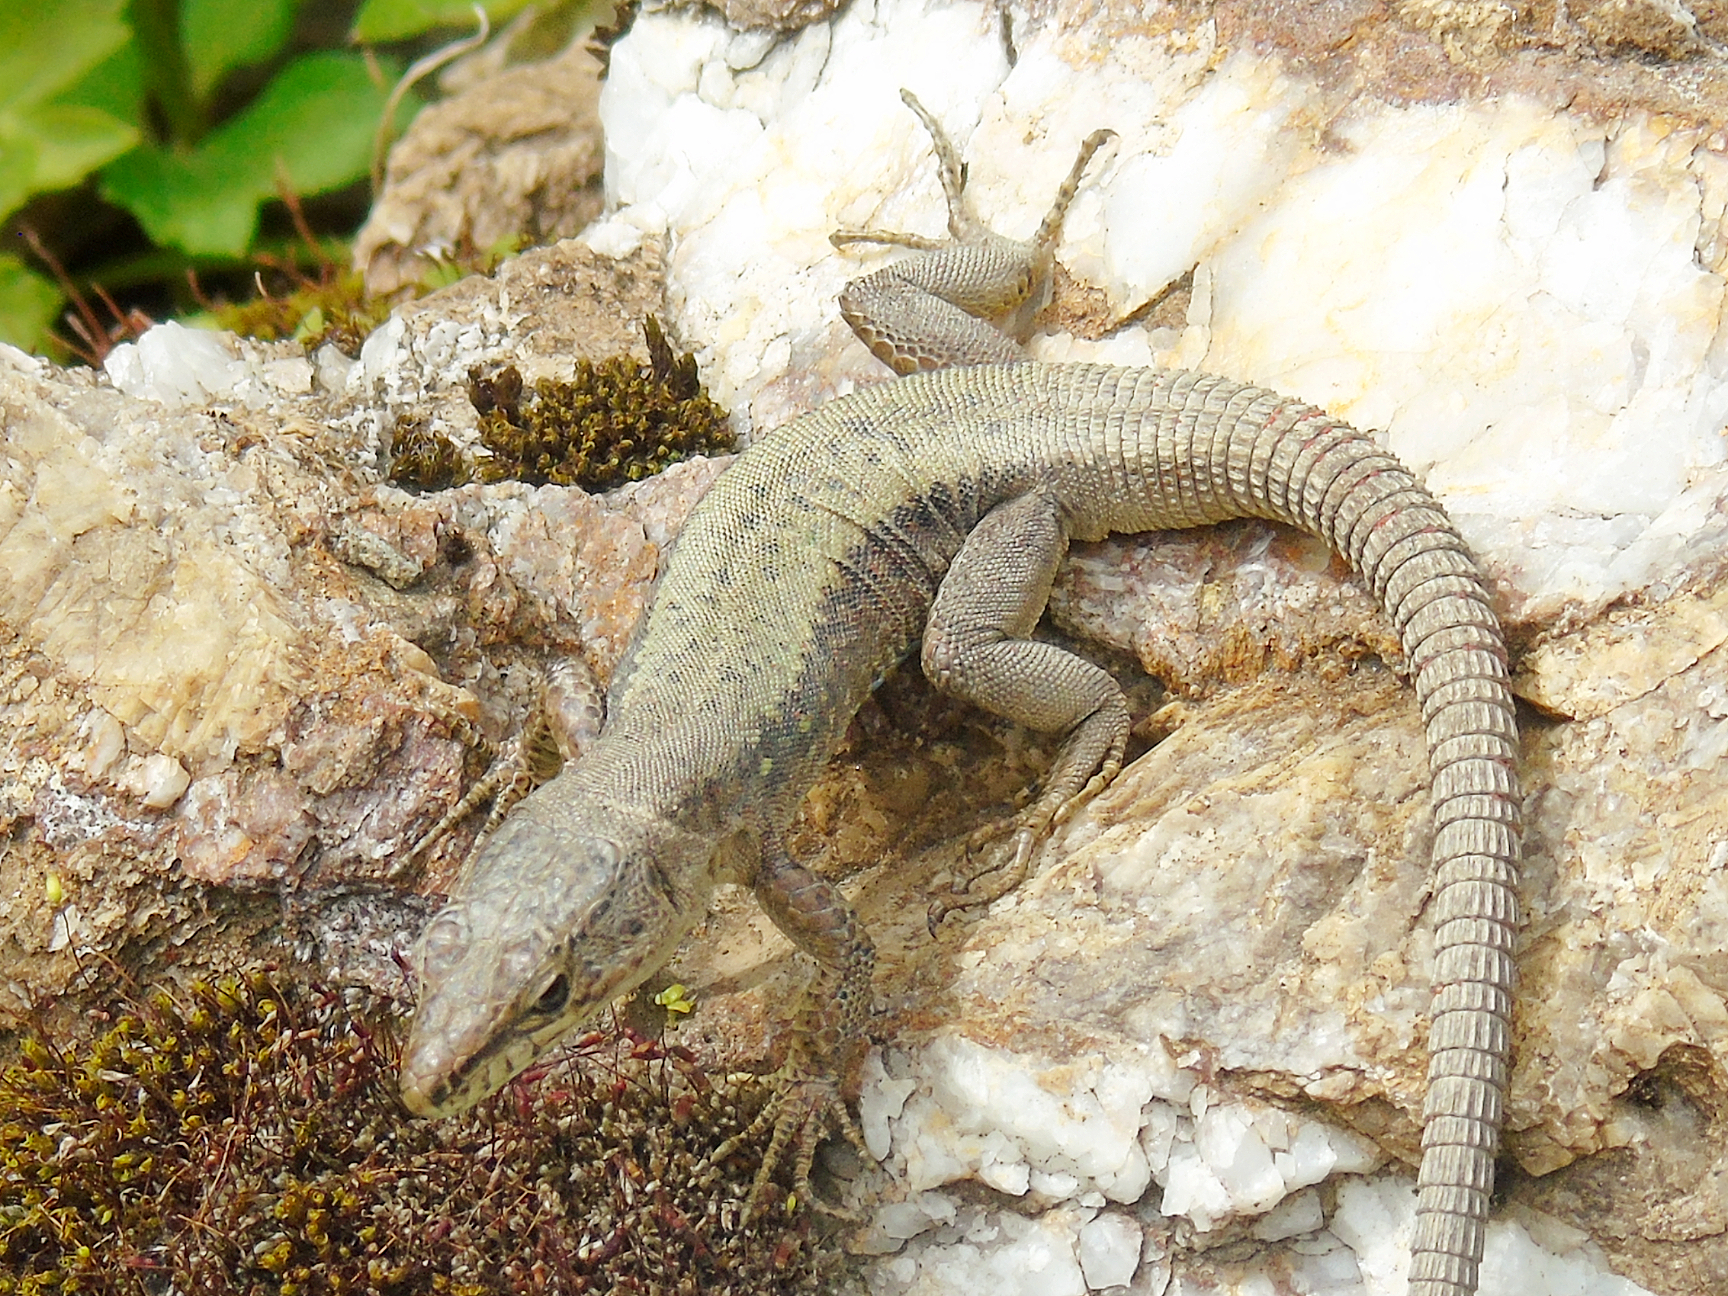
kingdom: Animalia
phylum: Chordata
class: Squamata
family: Lacertidae
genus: Darevskia
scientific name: Darevskia rudis
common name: Spiny-tailed lizard
